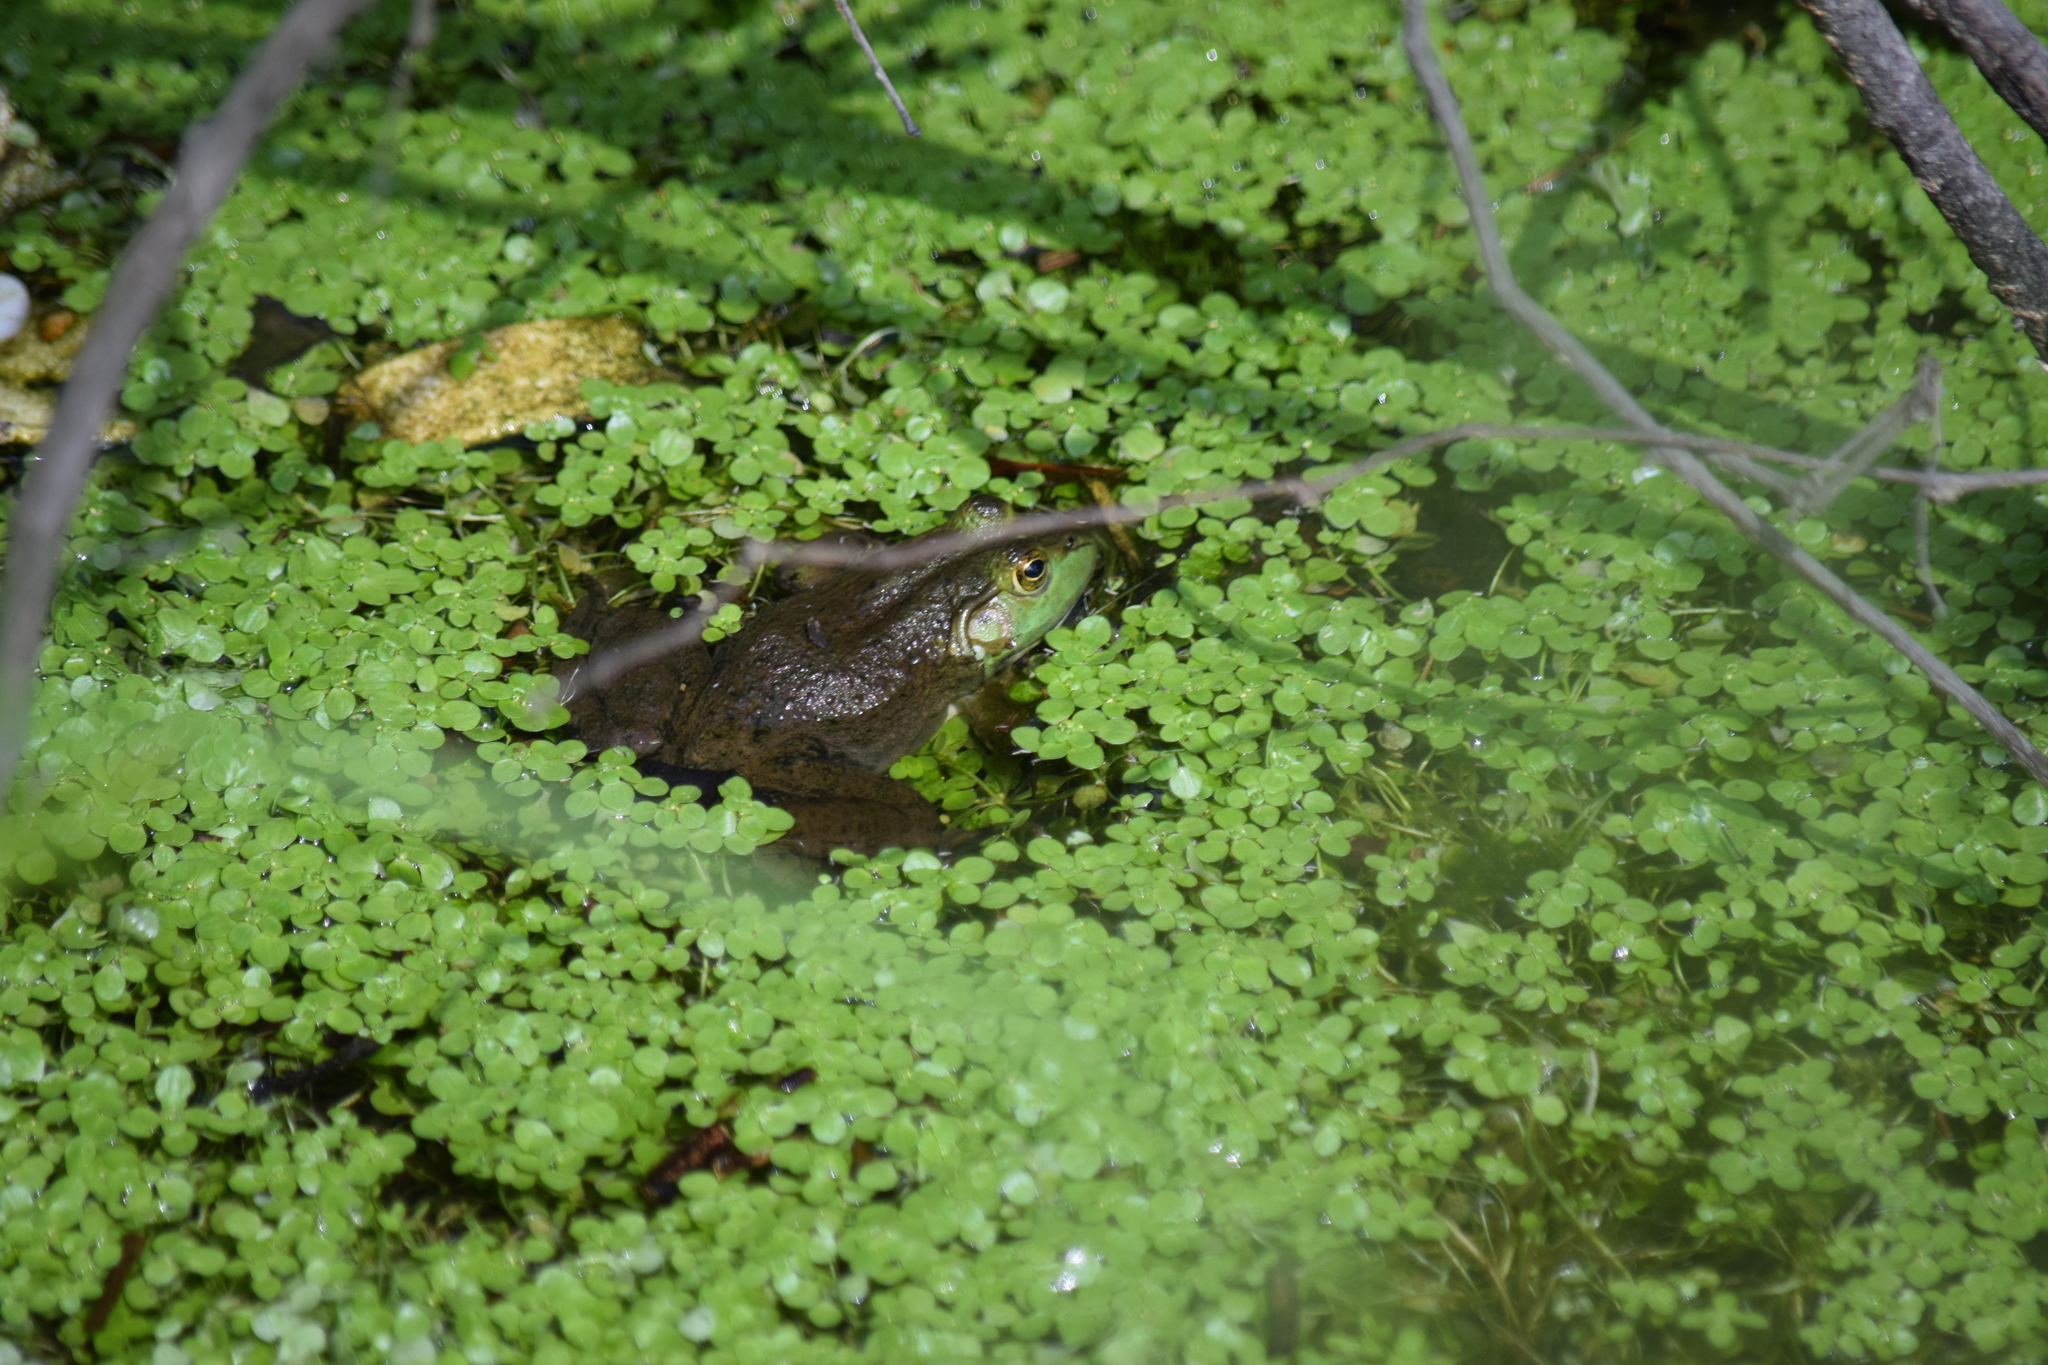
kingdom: Animalia
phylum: Chordata
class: Amphibia
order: Anura
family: Ranidae
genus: Lithobates
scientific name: Lithobates catesbeianus
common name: American bullfrog
